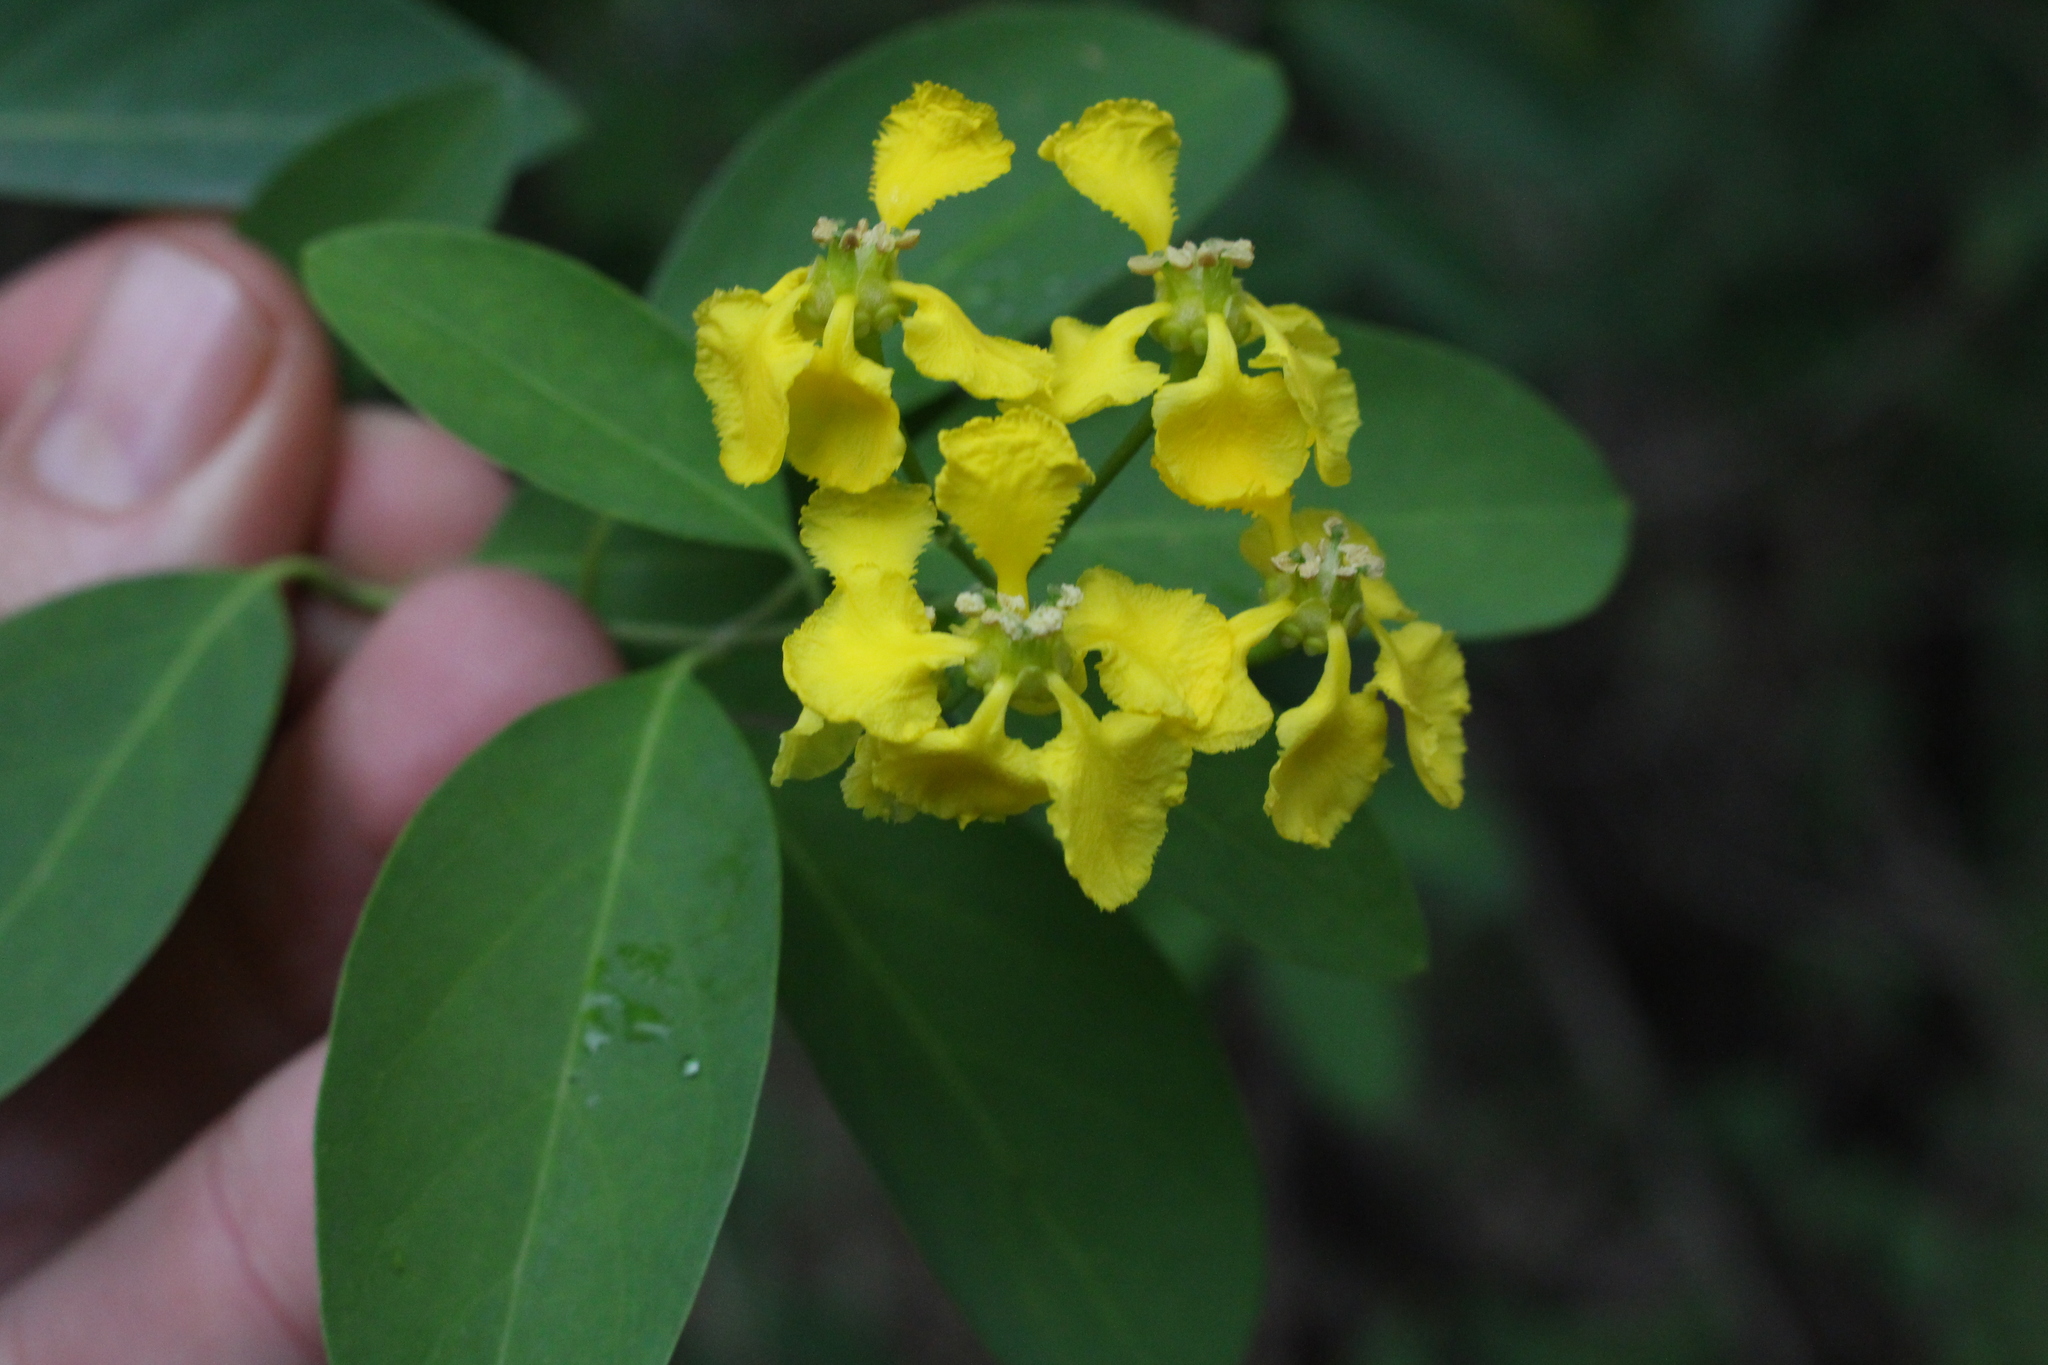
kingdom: Plantae
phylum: Tracheophyta
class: Magnoliopsida
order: Malpighiales
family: Malpighiaceae
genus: Callaeum
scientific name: Callaeum macropterum
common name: Mexican butterfly-vine
